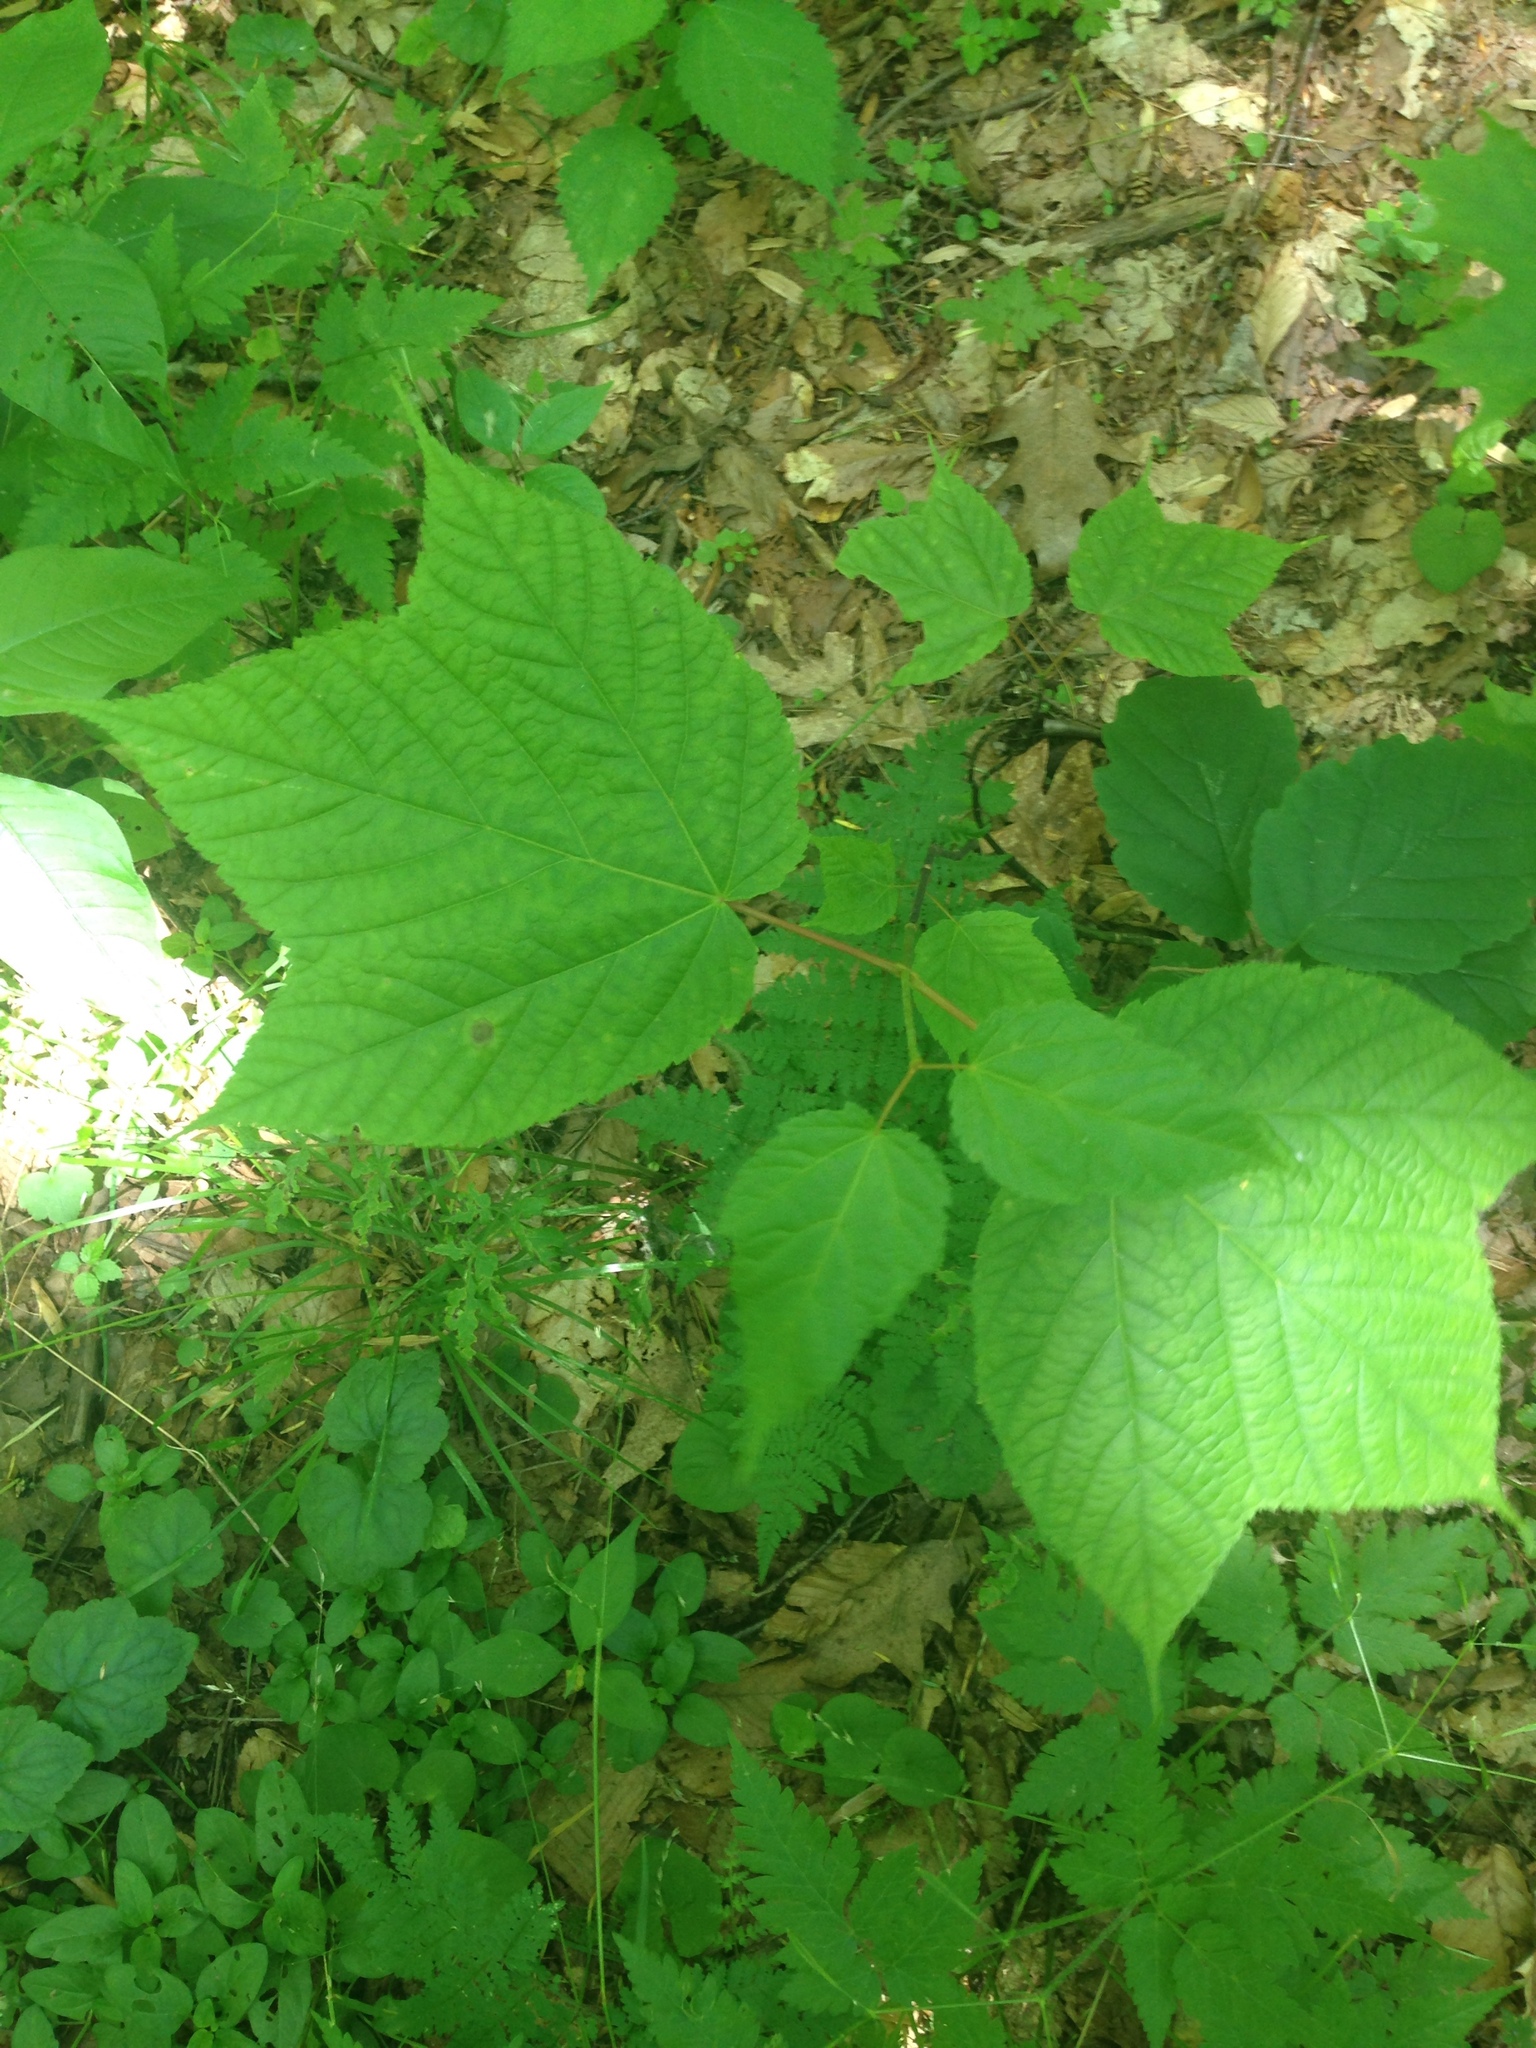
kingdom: Plantae
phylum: Tracheophyta
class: Magnoliopsida
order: Sapindales
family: Sapindaceae
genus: Acer
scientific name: Acer pensylvanicum
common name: Moosewood
